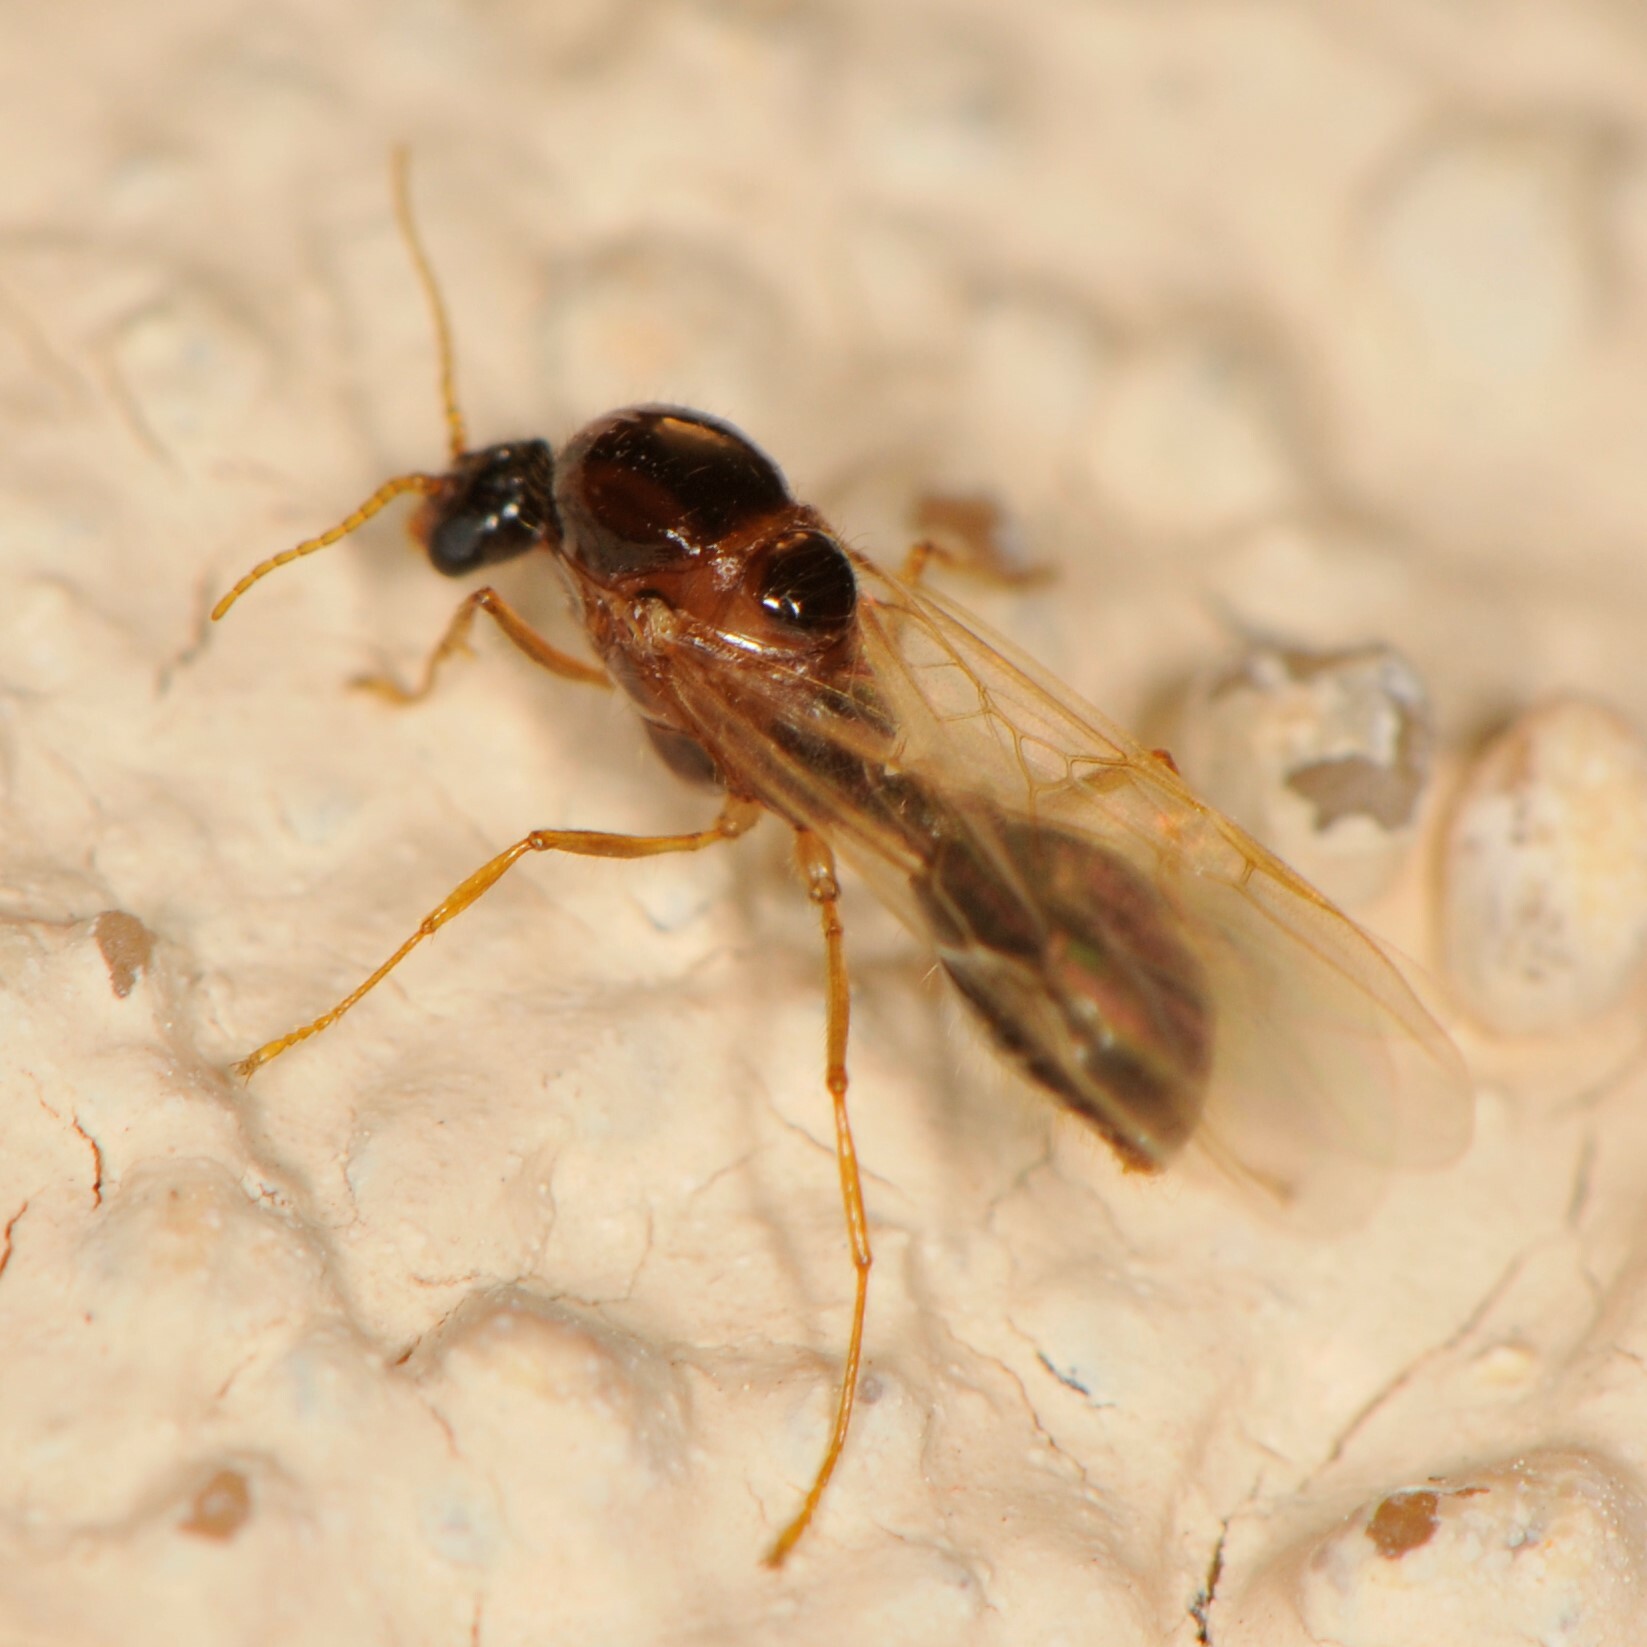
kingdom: Animalia
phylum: Arthropoda
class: Insecta
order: Hymenoptera
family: Formicidae
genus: Solenopsis
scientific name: Solenopsis
